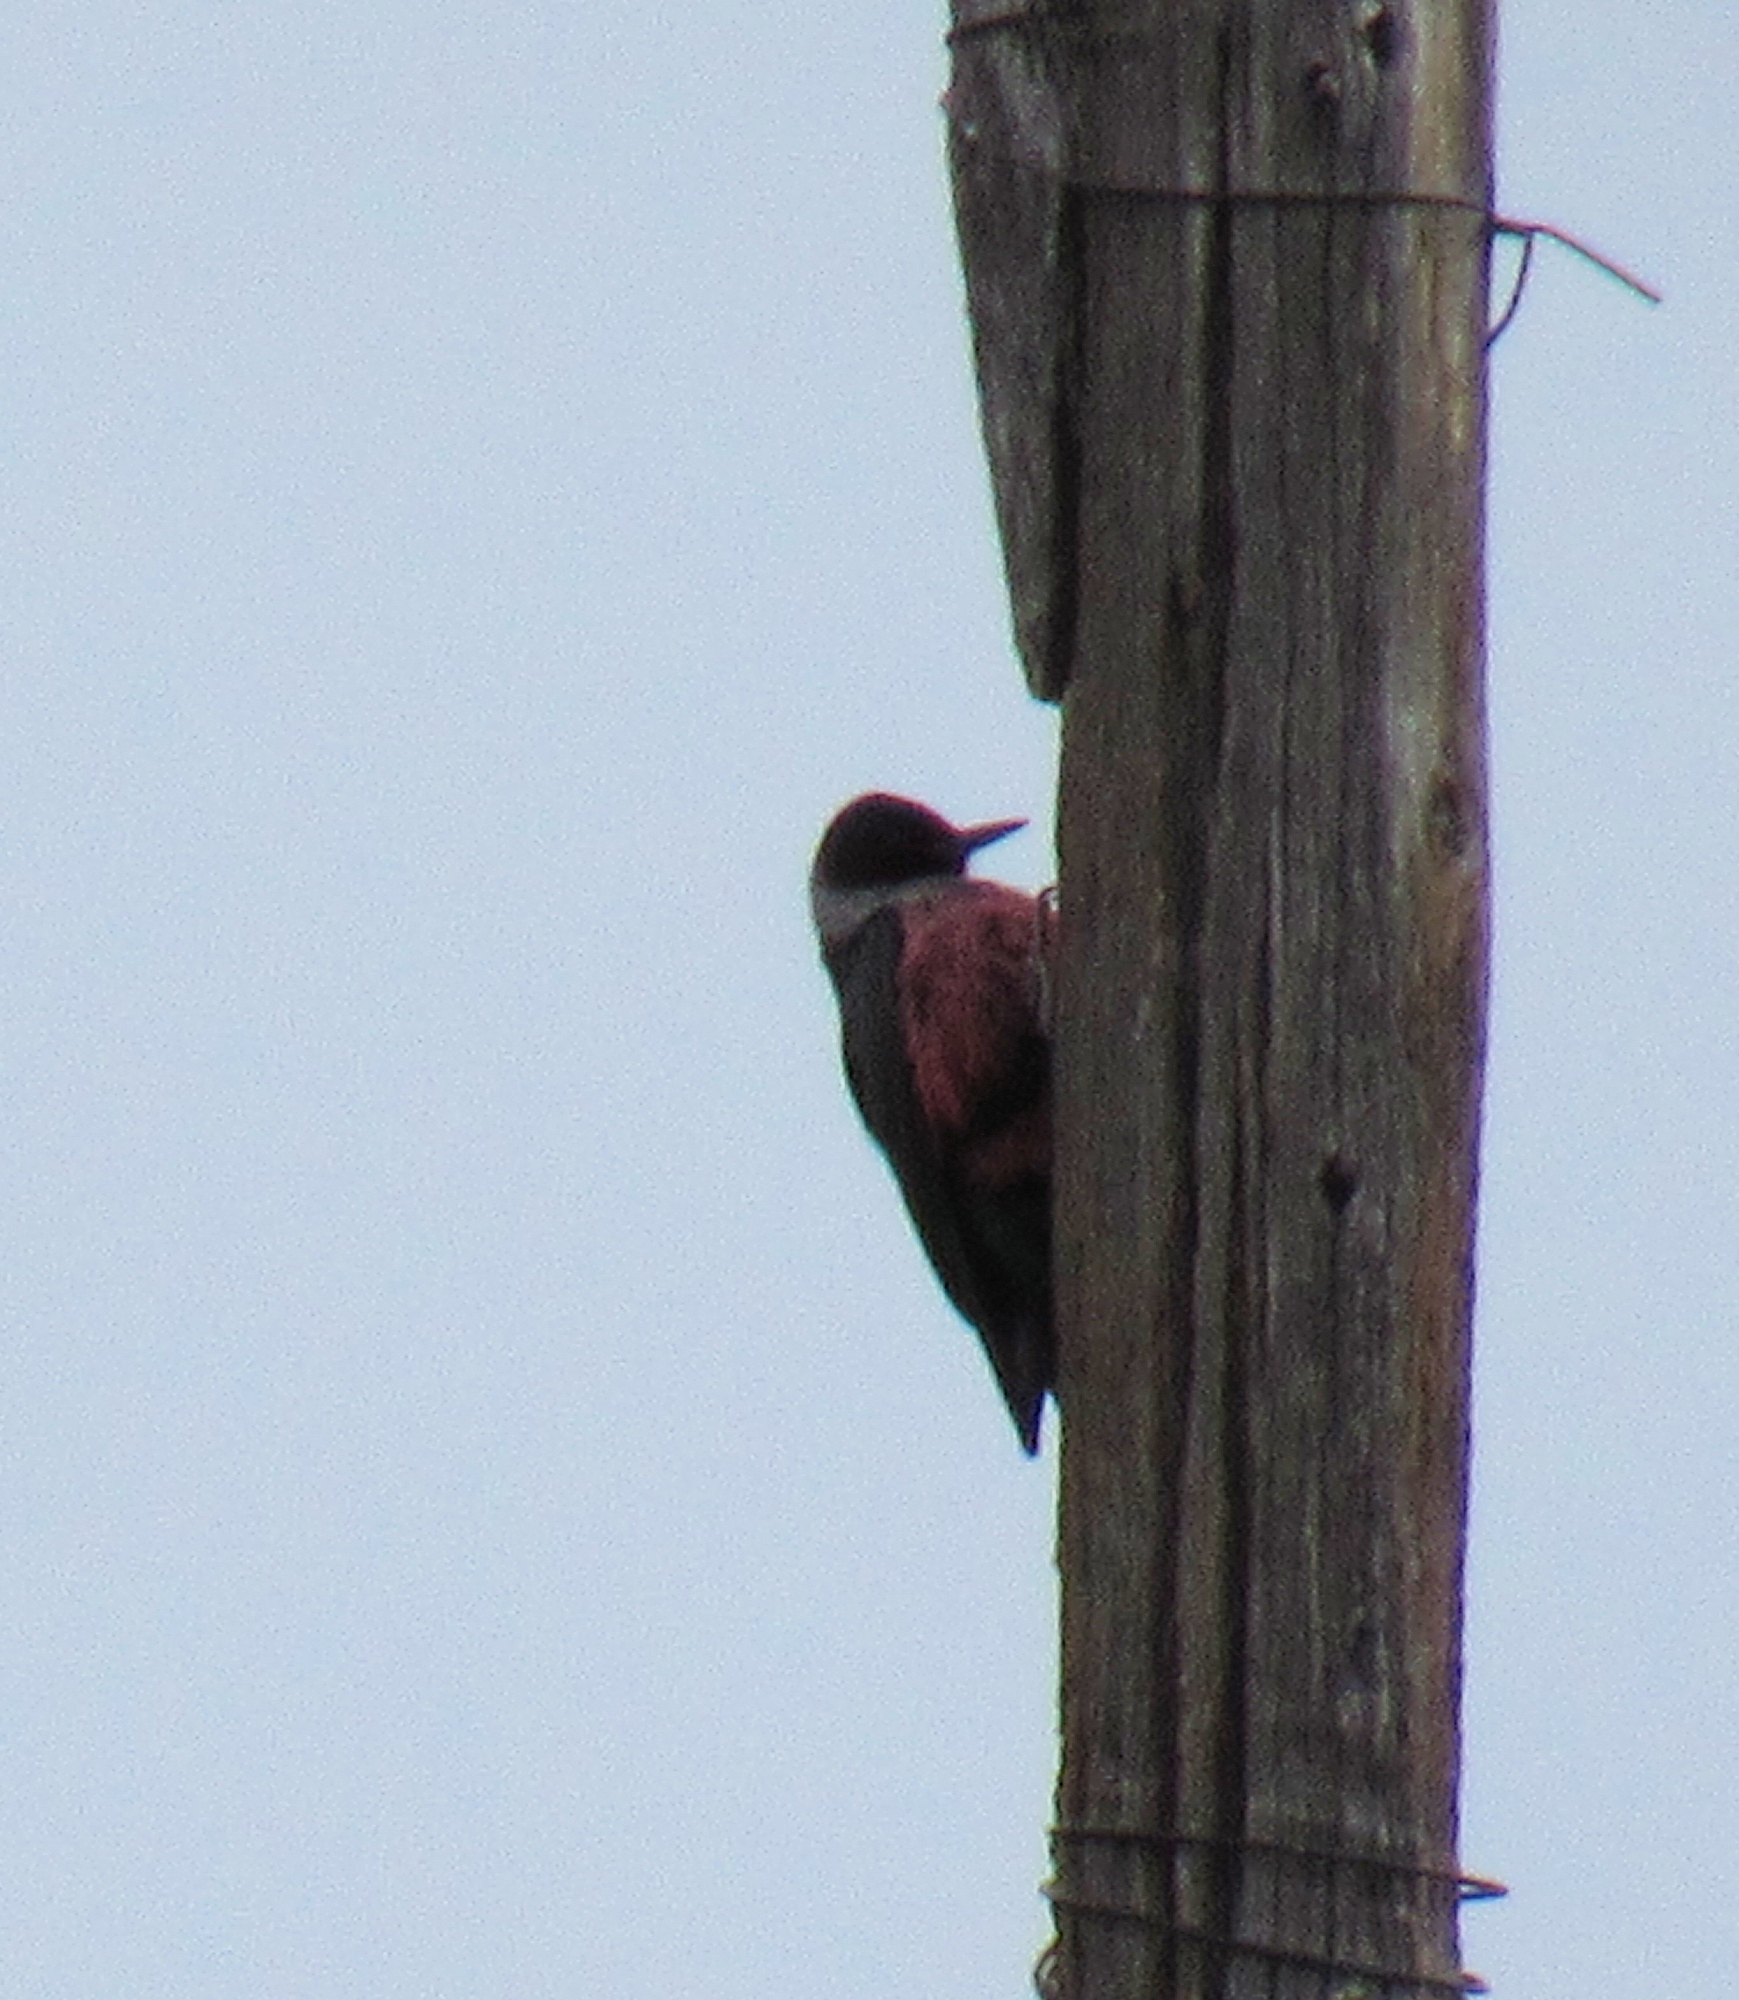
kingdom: Animalia
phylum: Chordata
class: Aves
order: Piciformes
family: Picidae
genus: Melanerpes
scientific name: Melanerpes lewis
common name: Lewis's woodpecker
